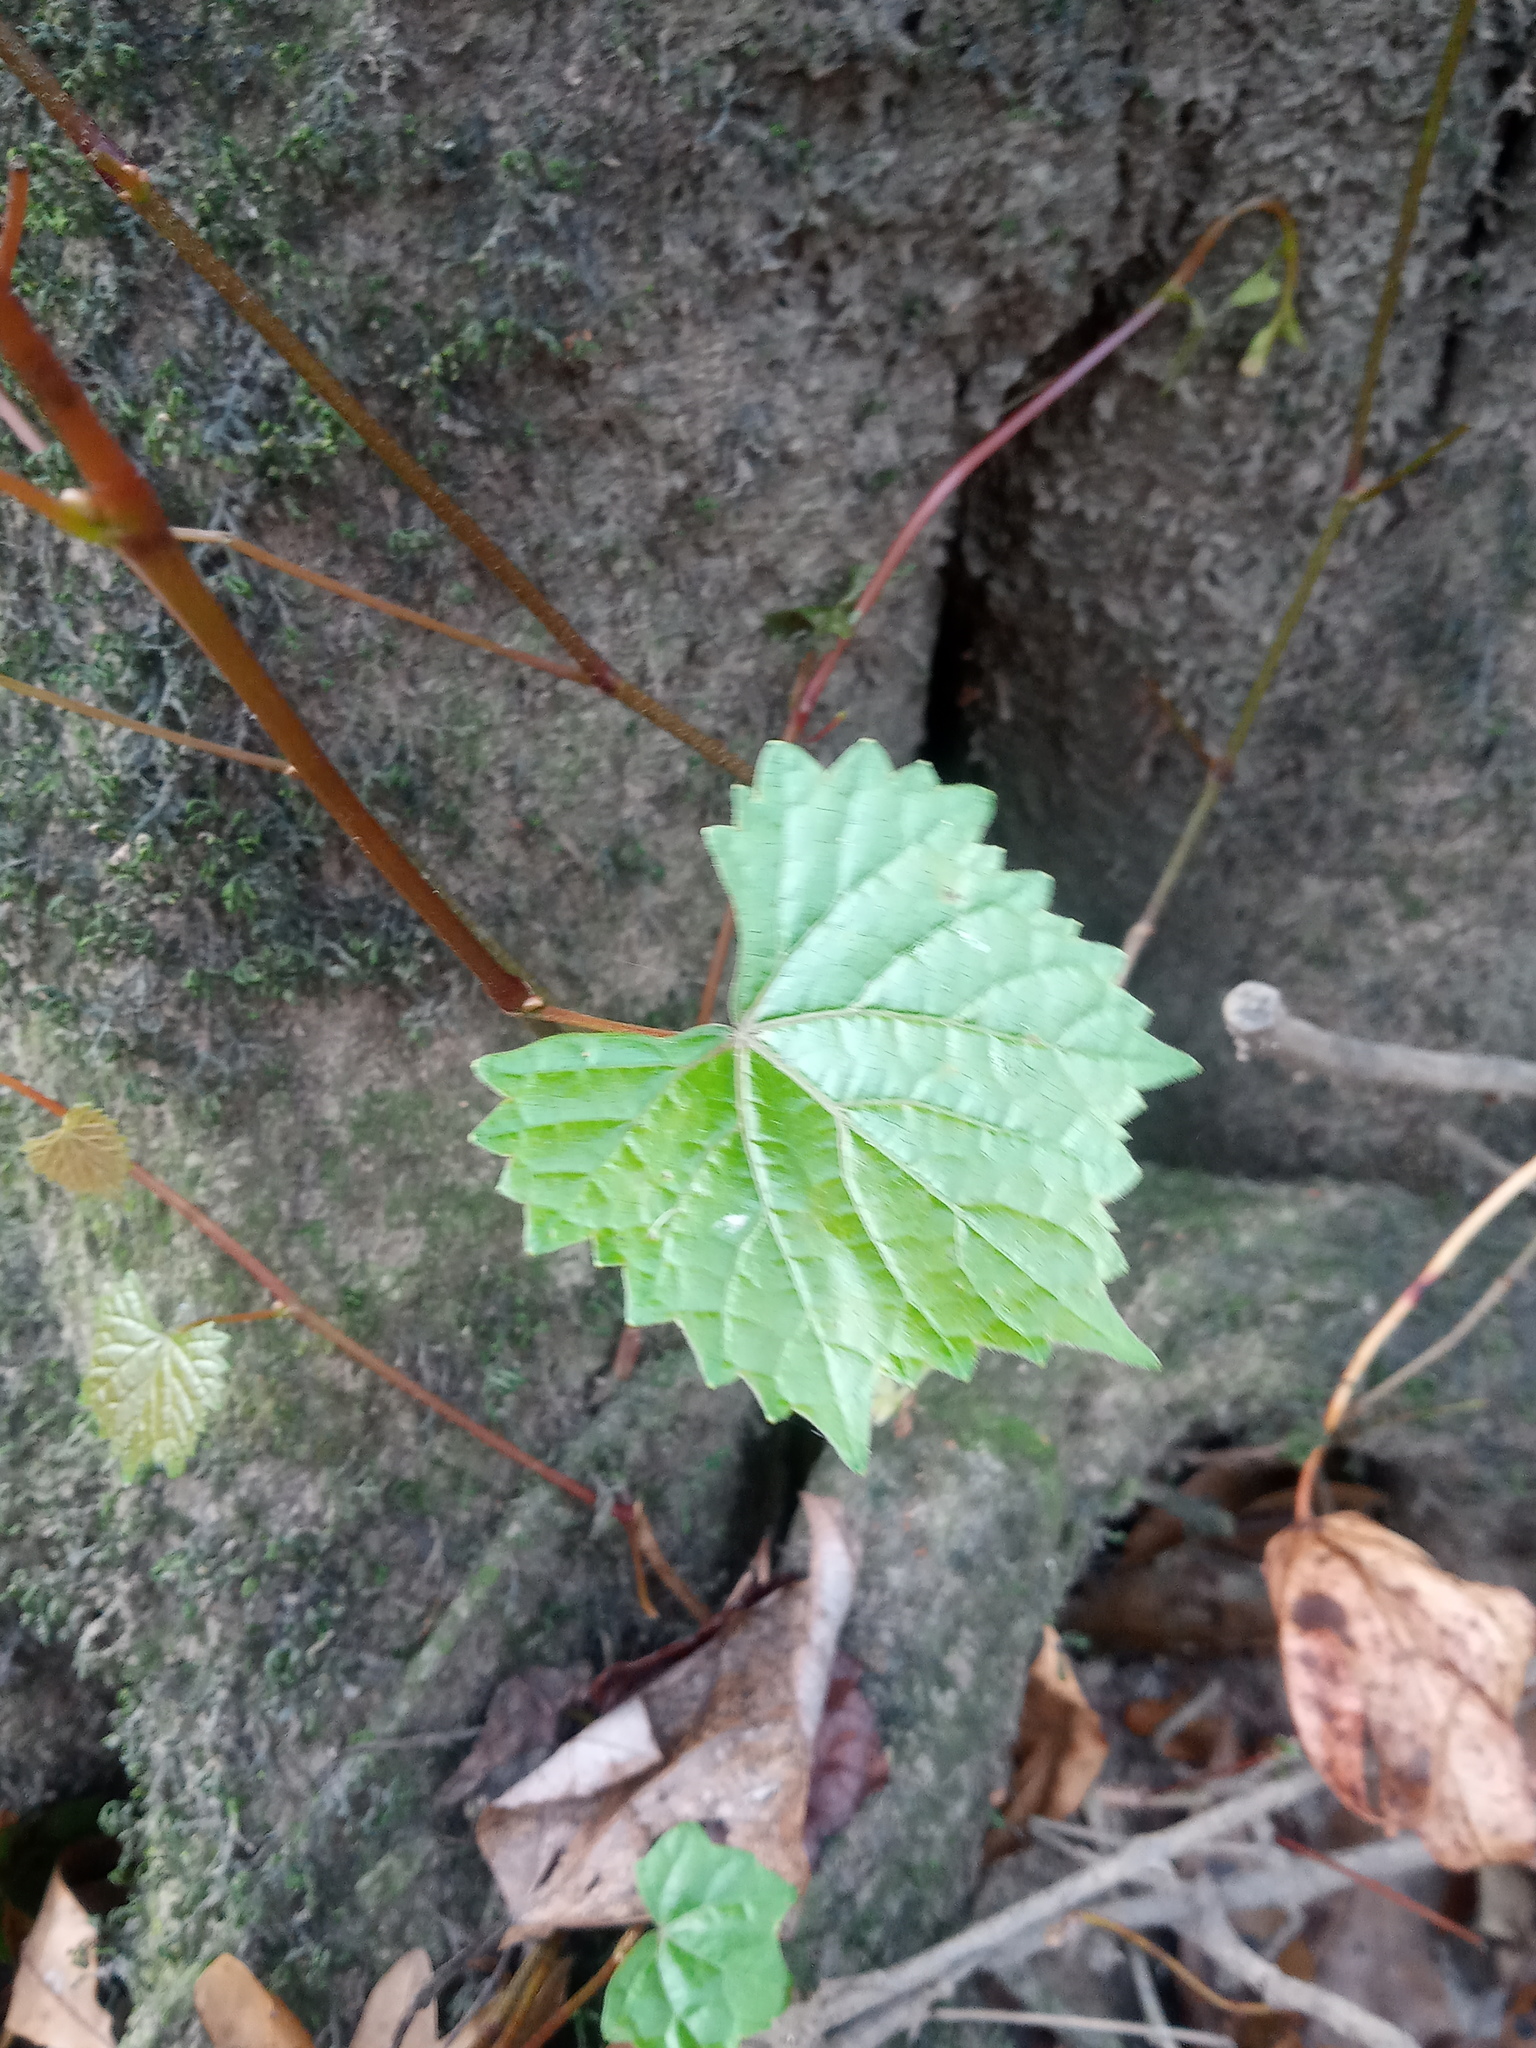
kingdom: Plantae
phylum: Tracheophyta
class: Magnoliopsida
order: Vitales
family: Vitaceae
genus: Vitis
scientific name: Vitis rotundifolia
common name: Muscadine grape
